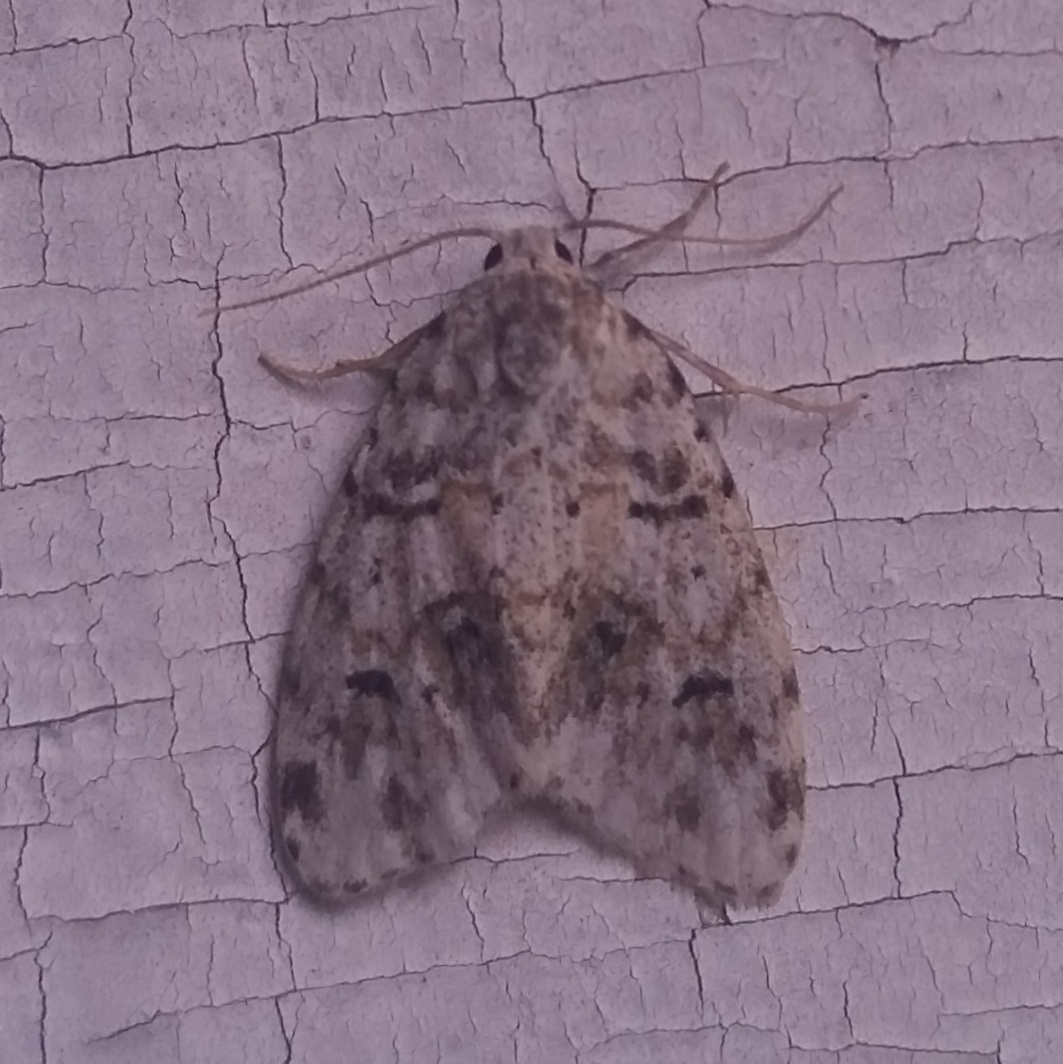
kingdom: Animalia
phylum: Arthropoda
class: Insecta
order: Lepidoptera
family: Erebidae
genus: Clemensia
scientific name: Clemensia albata
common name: Little white lichen moth
